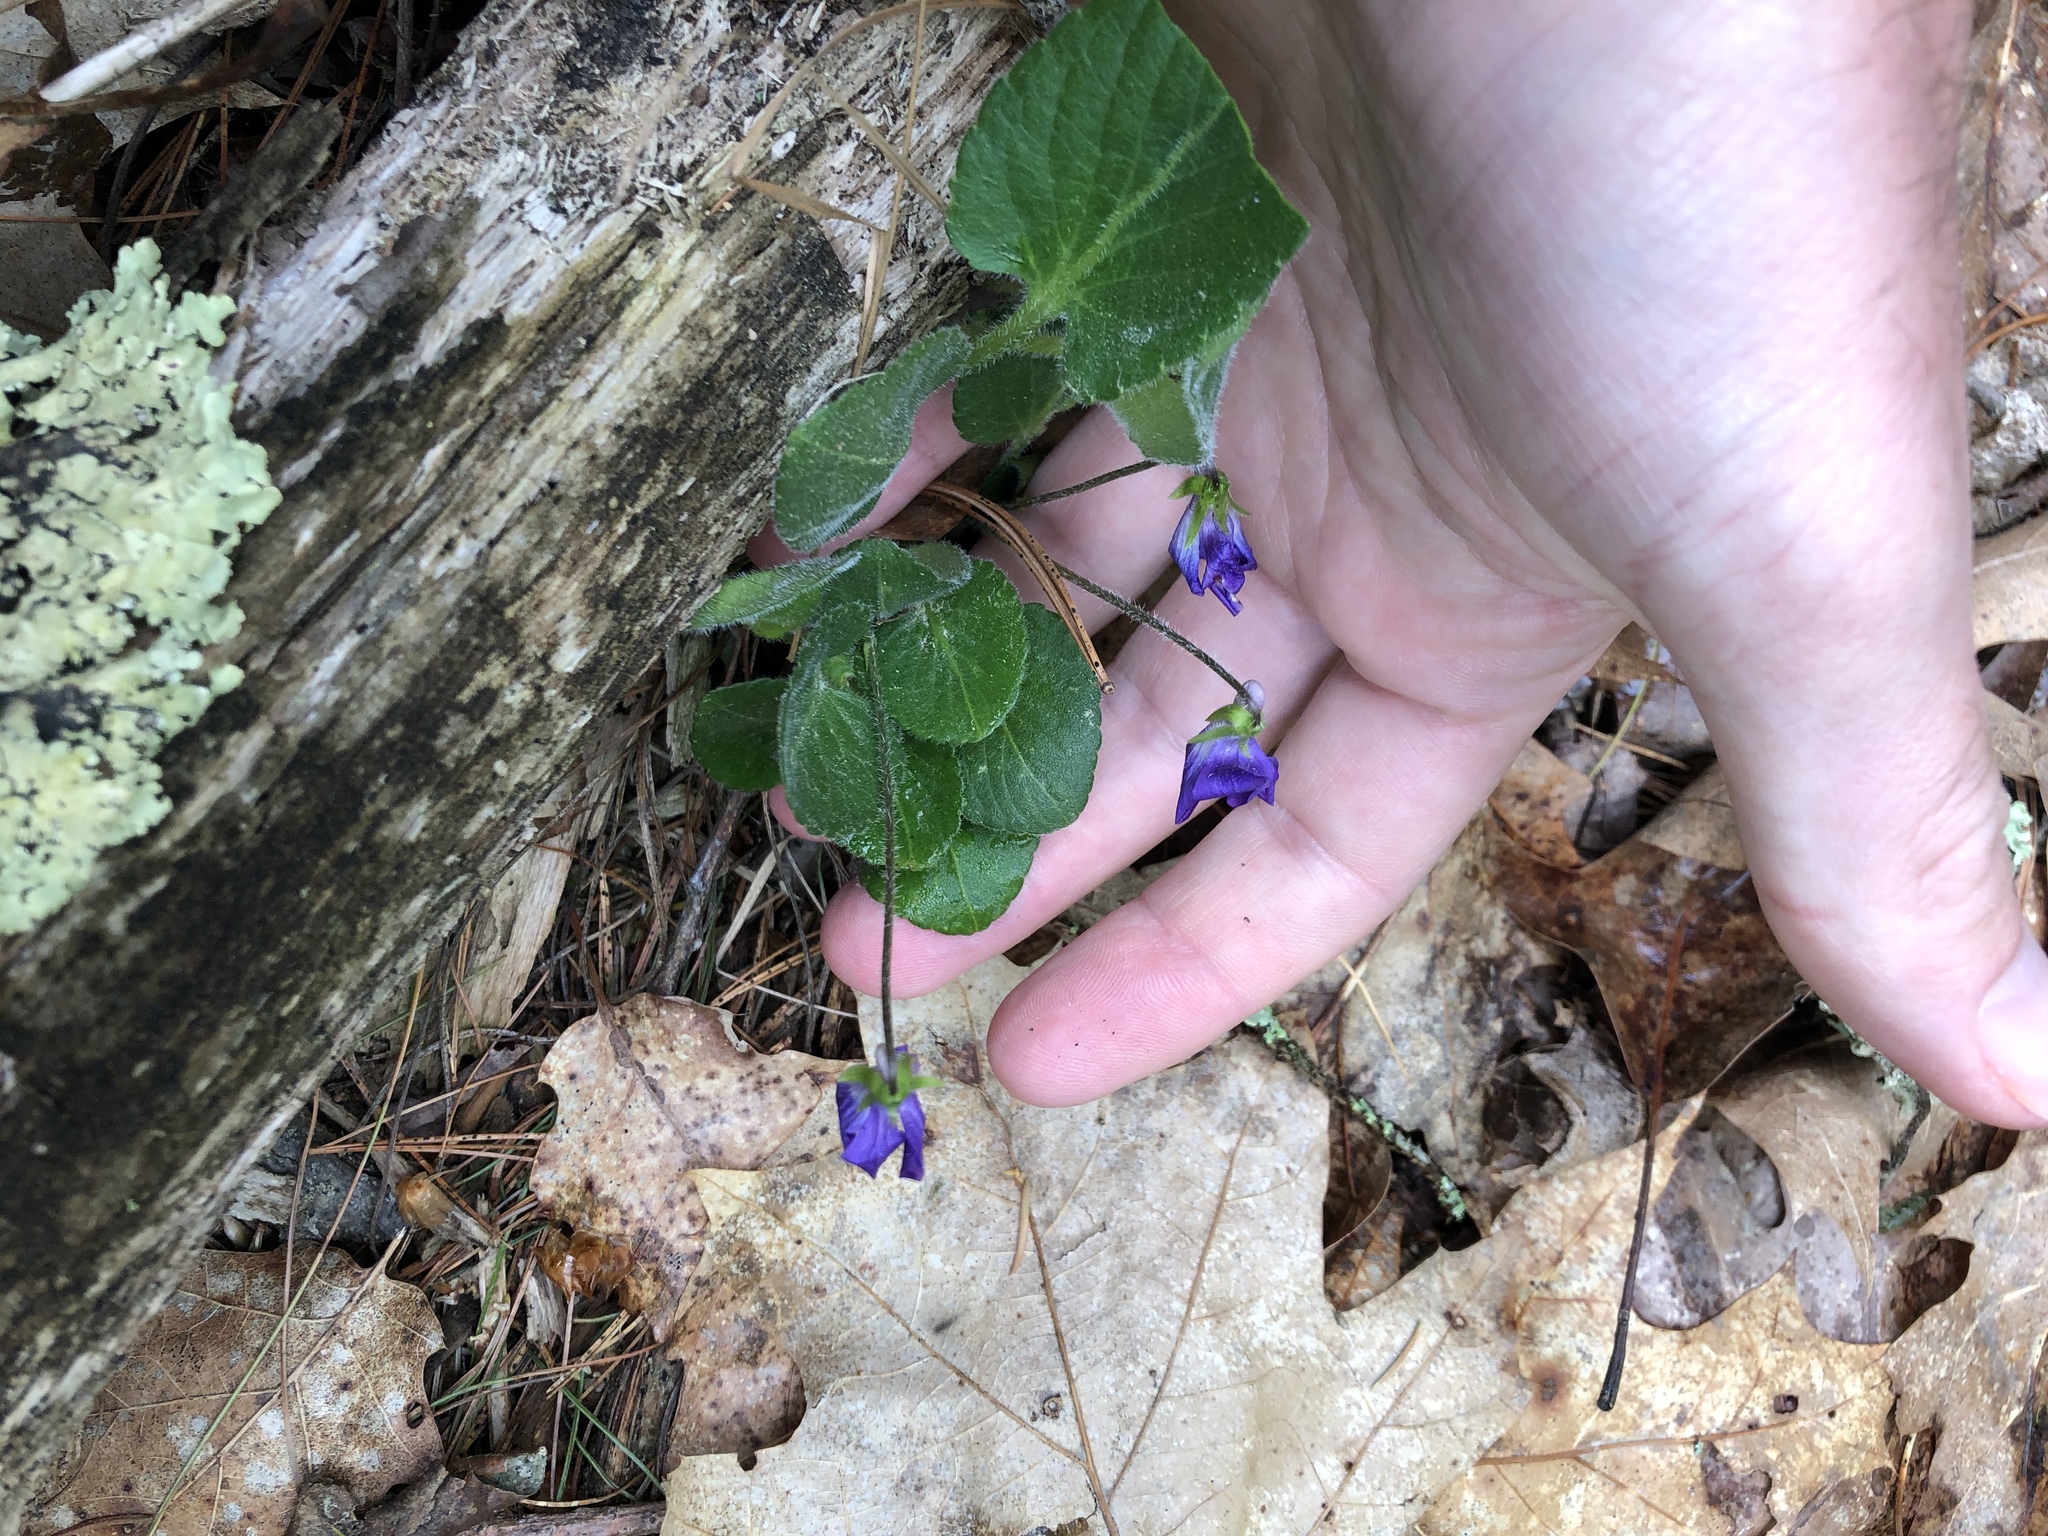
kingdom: Plantae
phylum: Tracheophyta
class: Magnoliopsida
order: Malpighiales
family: Violaceae
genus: Viola
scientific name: Viola sororia
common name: Dooryard violet
